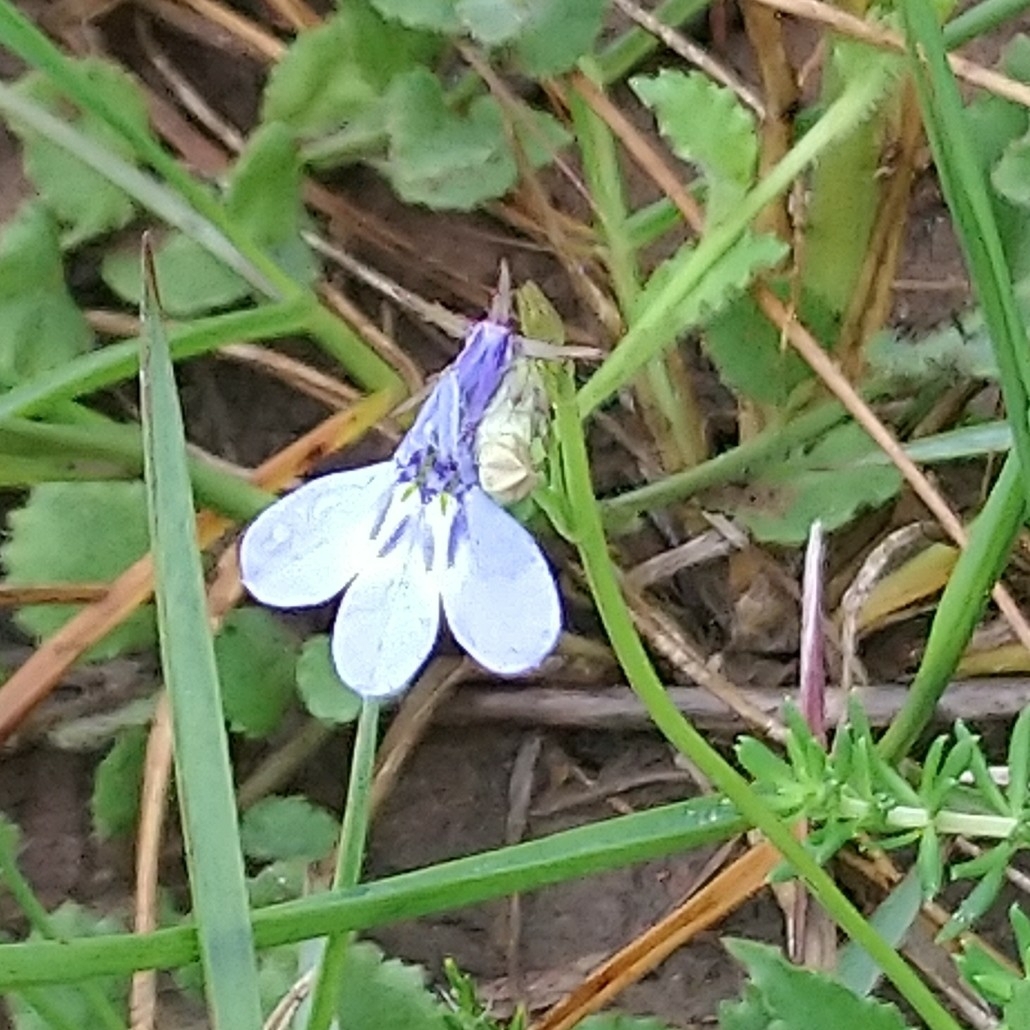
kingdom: Plantae
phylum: Tracheophyta
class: Magnoliopsida
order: Asterales
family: Campanulaceae
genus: Lobelia
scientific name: Lobelia flaccida
